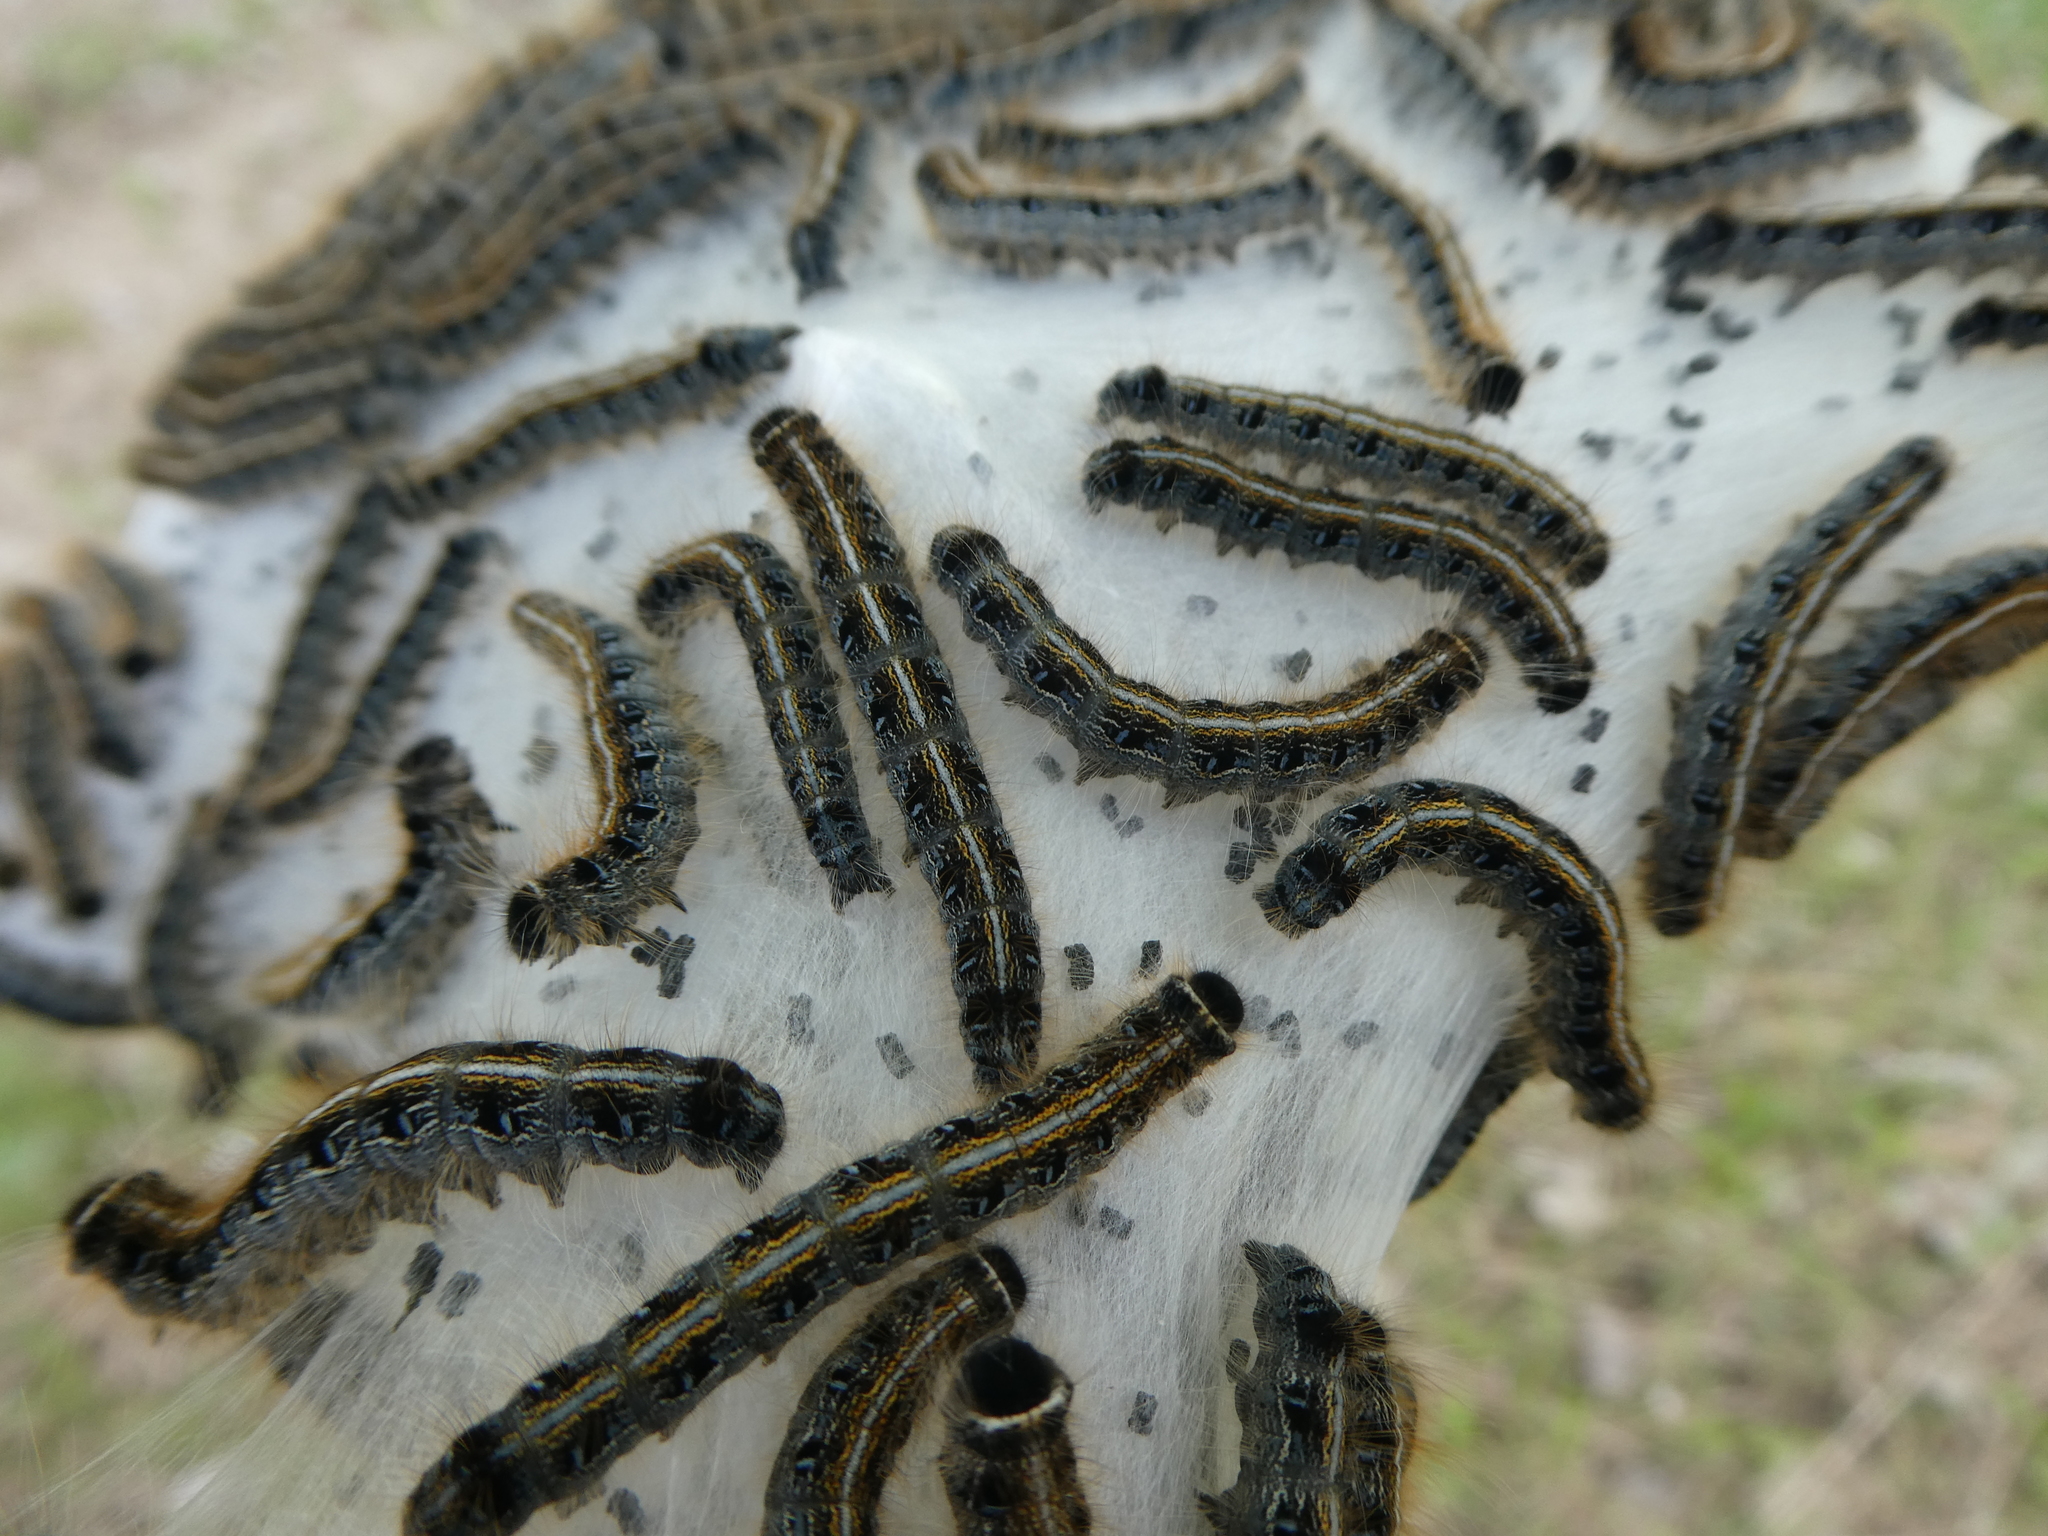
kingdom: Animalia
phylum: Arthropoda
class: Insecta
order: Lepidoptera
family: Lasiocampidae
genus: Malacosoma
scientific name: Malacosoma americana
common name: Eastern tent caterpillar moth
